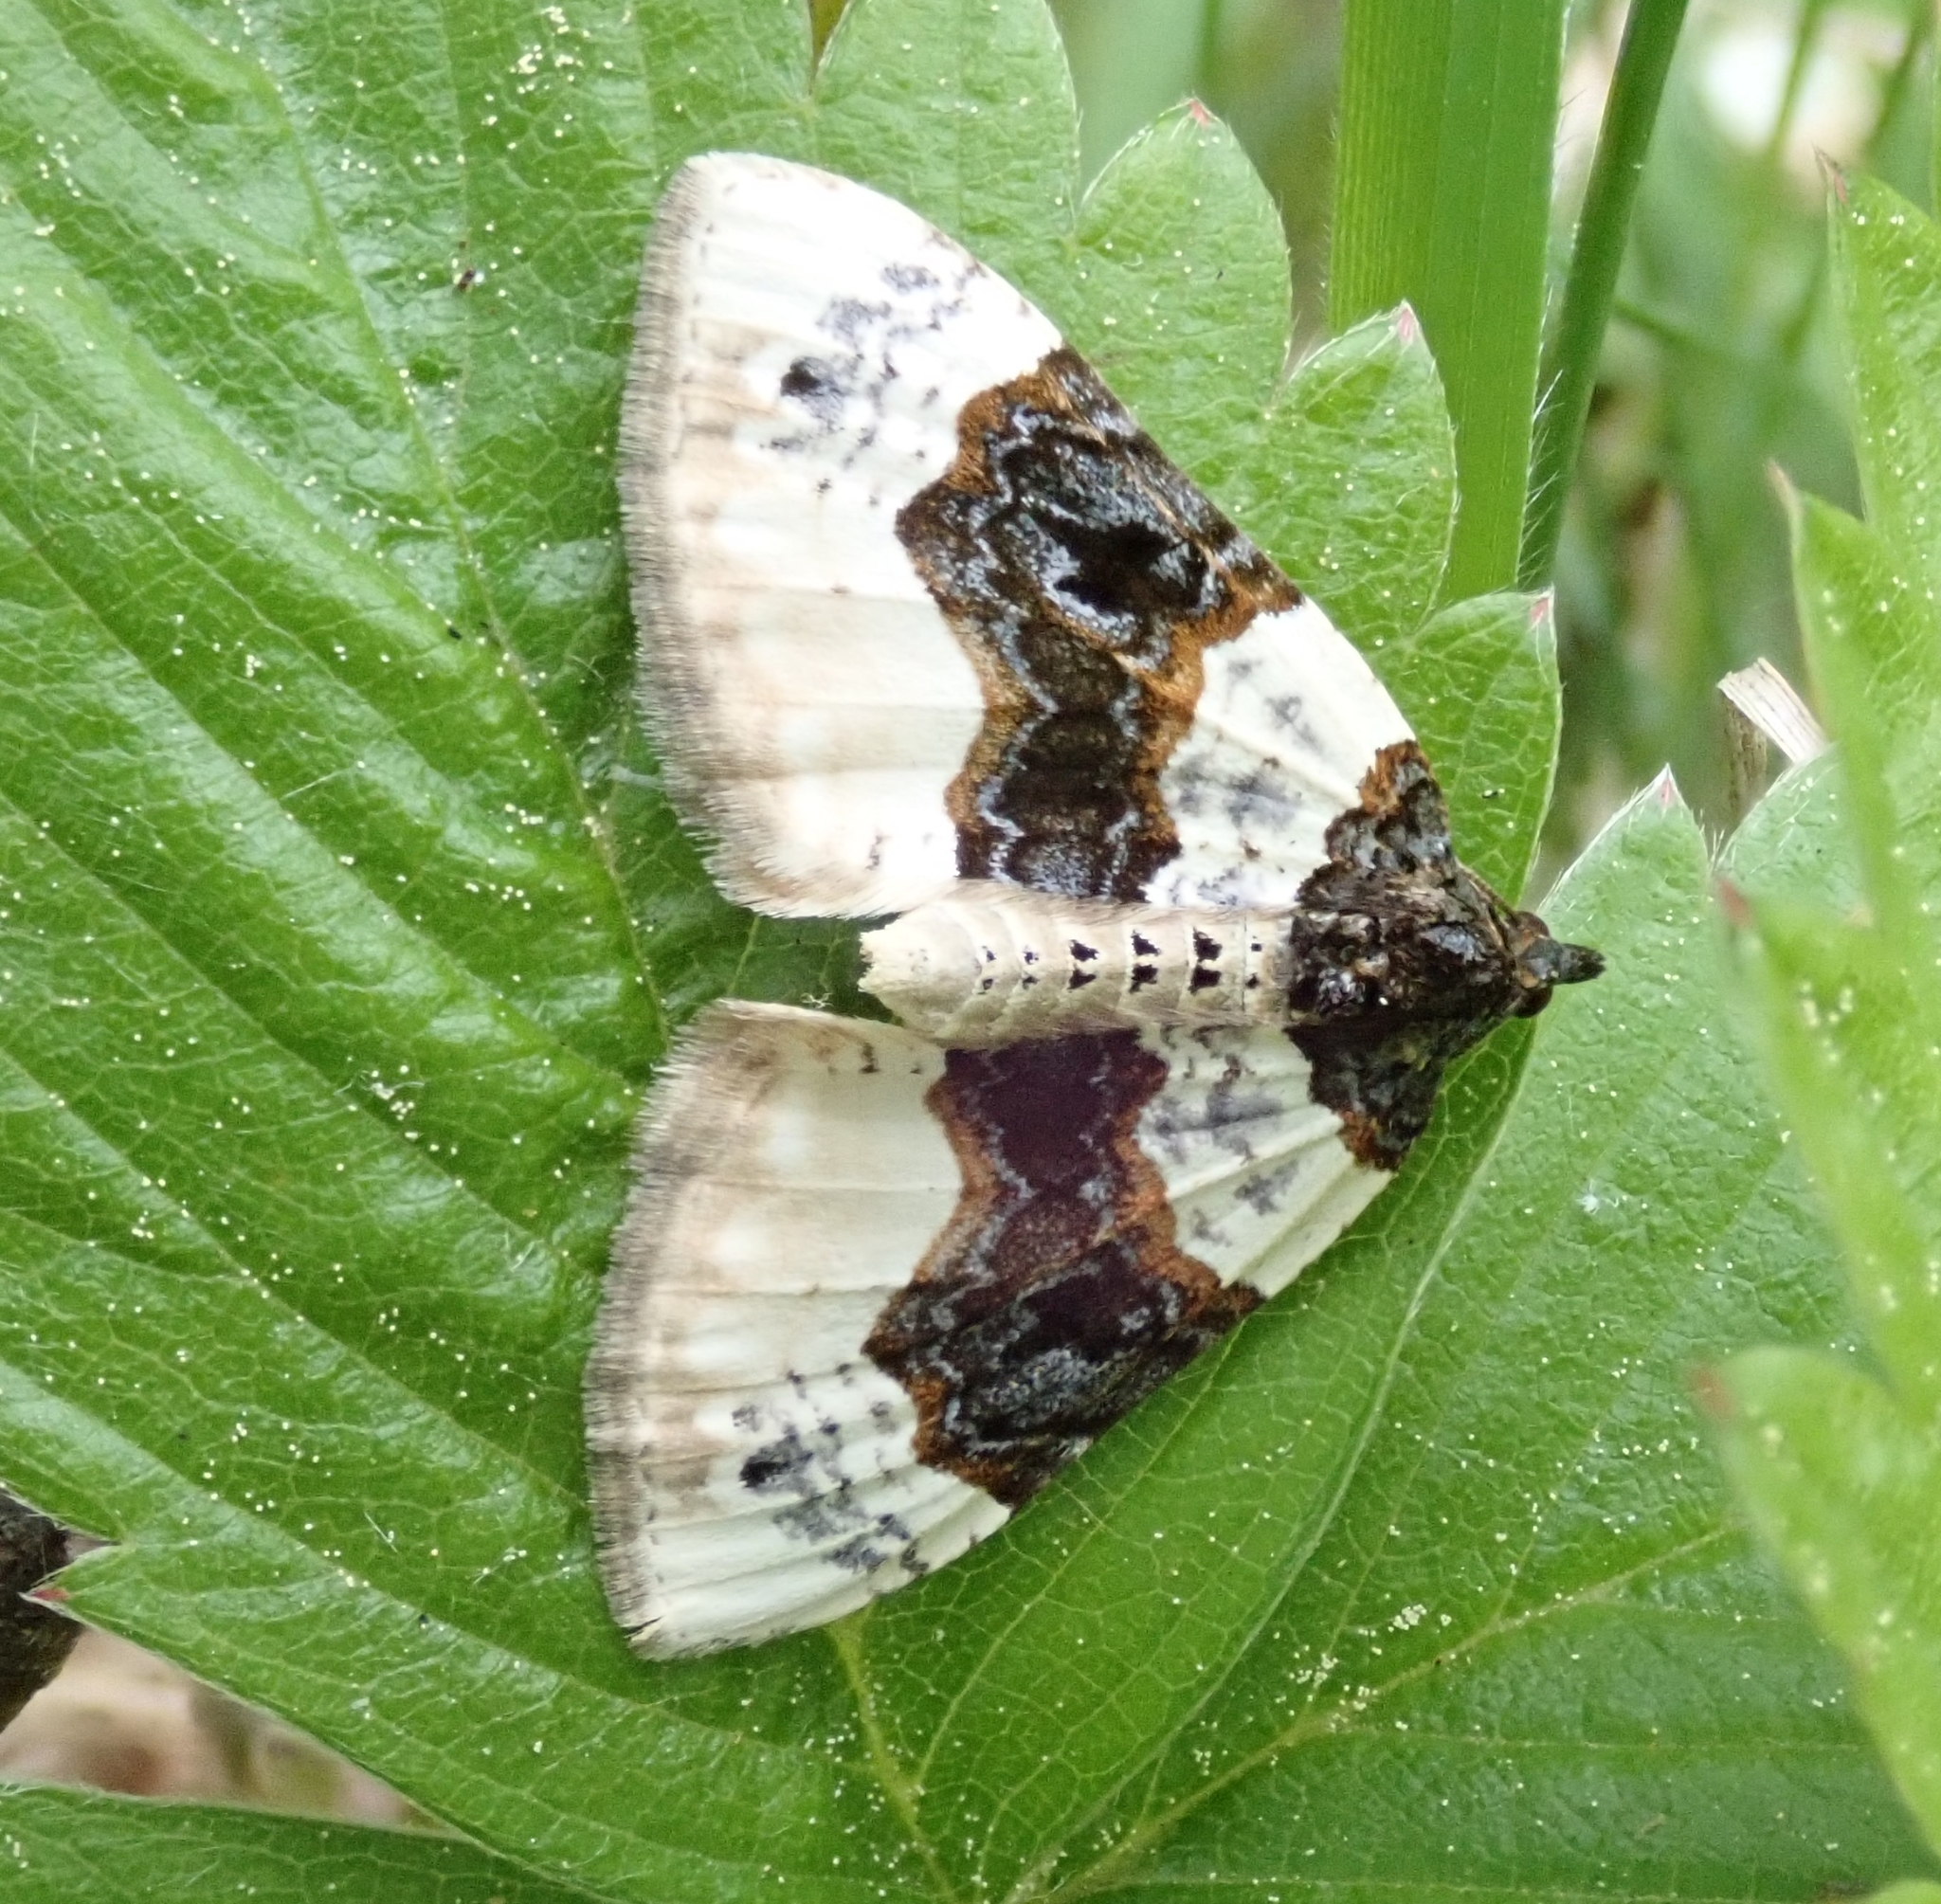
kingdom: Animalia
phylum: Arthropoda
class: Insecta
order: Lepidoptera
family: Geometridae
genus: Cosmorhoe
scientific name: Cosmorhoe ocellata
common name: Purple bar
